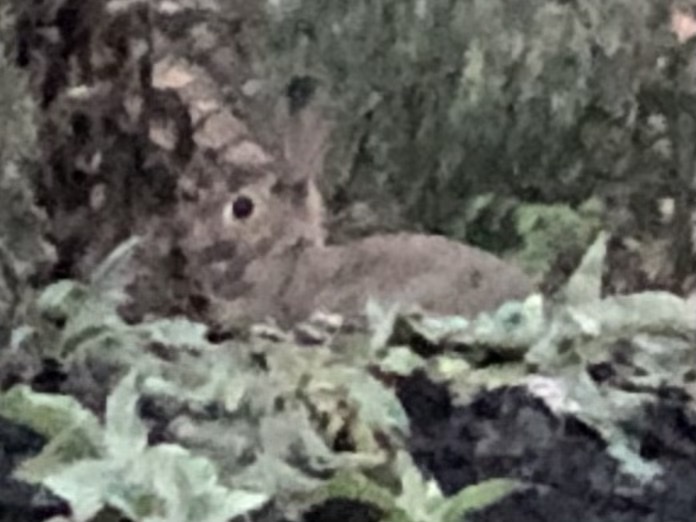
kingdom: Animalia
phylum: Chordata
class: Mammalia
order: Lagomorpha
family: Leporidae
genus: Oryctolagus
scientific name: Oryctolagus cuniculus
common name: European rabbit
